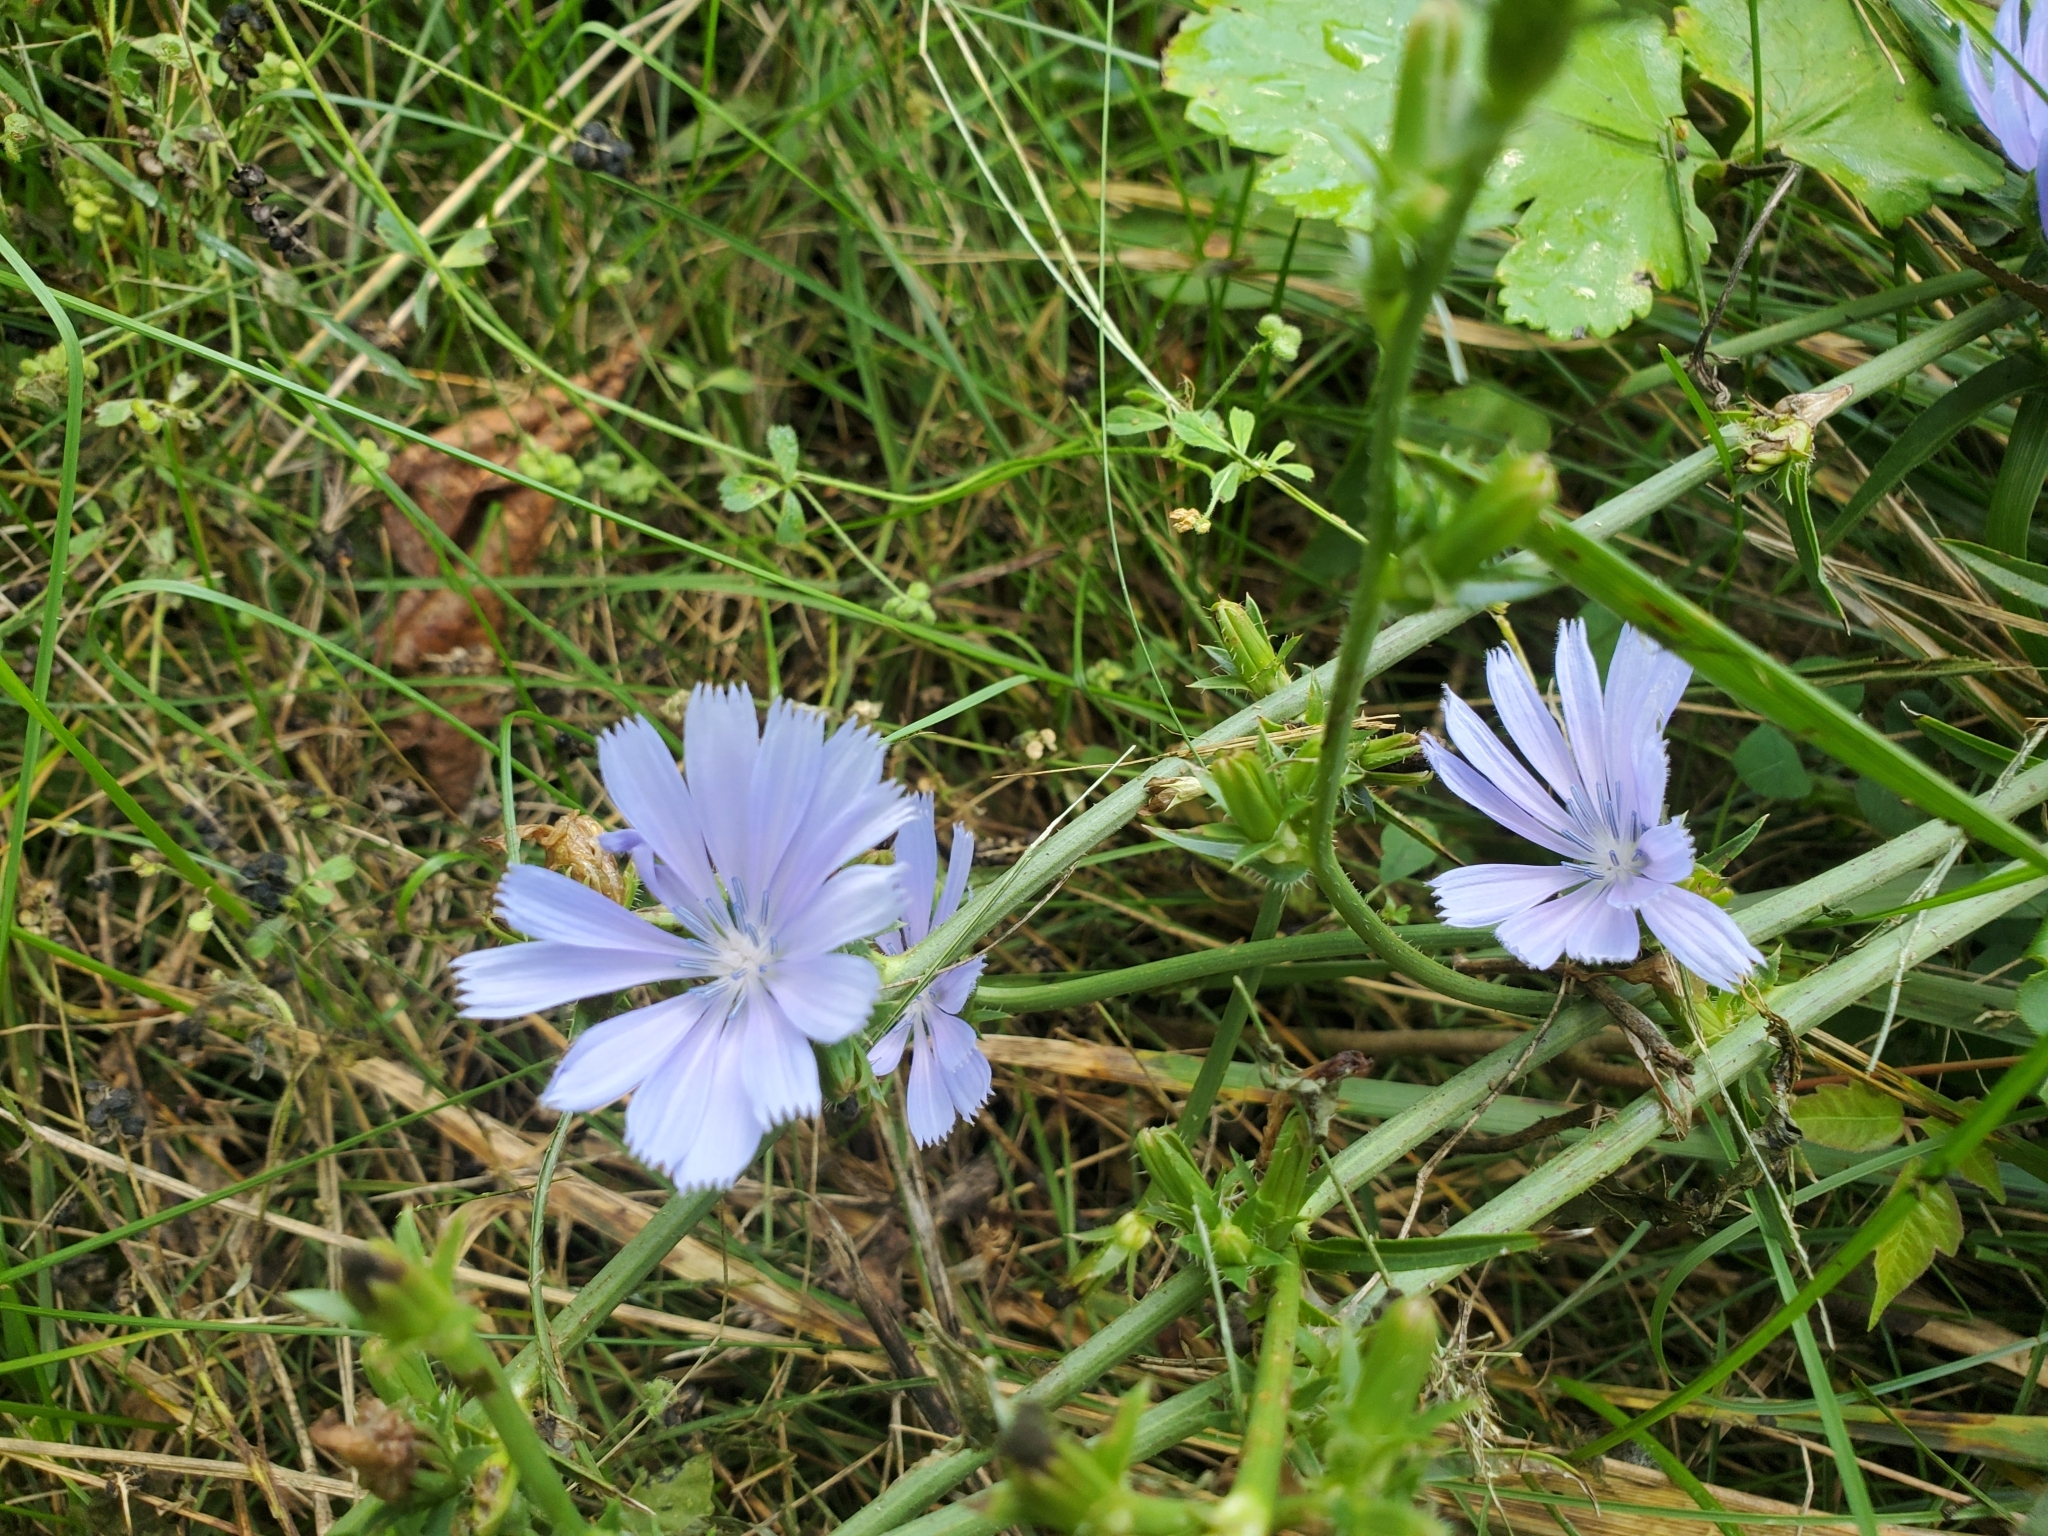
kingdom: Plantae
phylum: Tracheophyta
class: Magnoliopsida
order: Asterales
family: Asteraceae
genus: Cichorium
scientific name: Cichorium intybus
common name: Chicory
